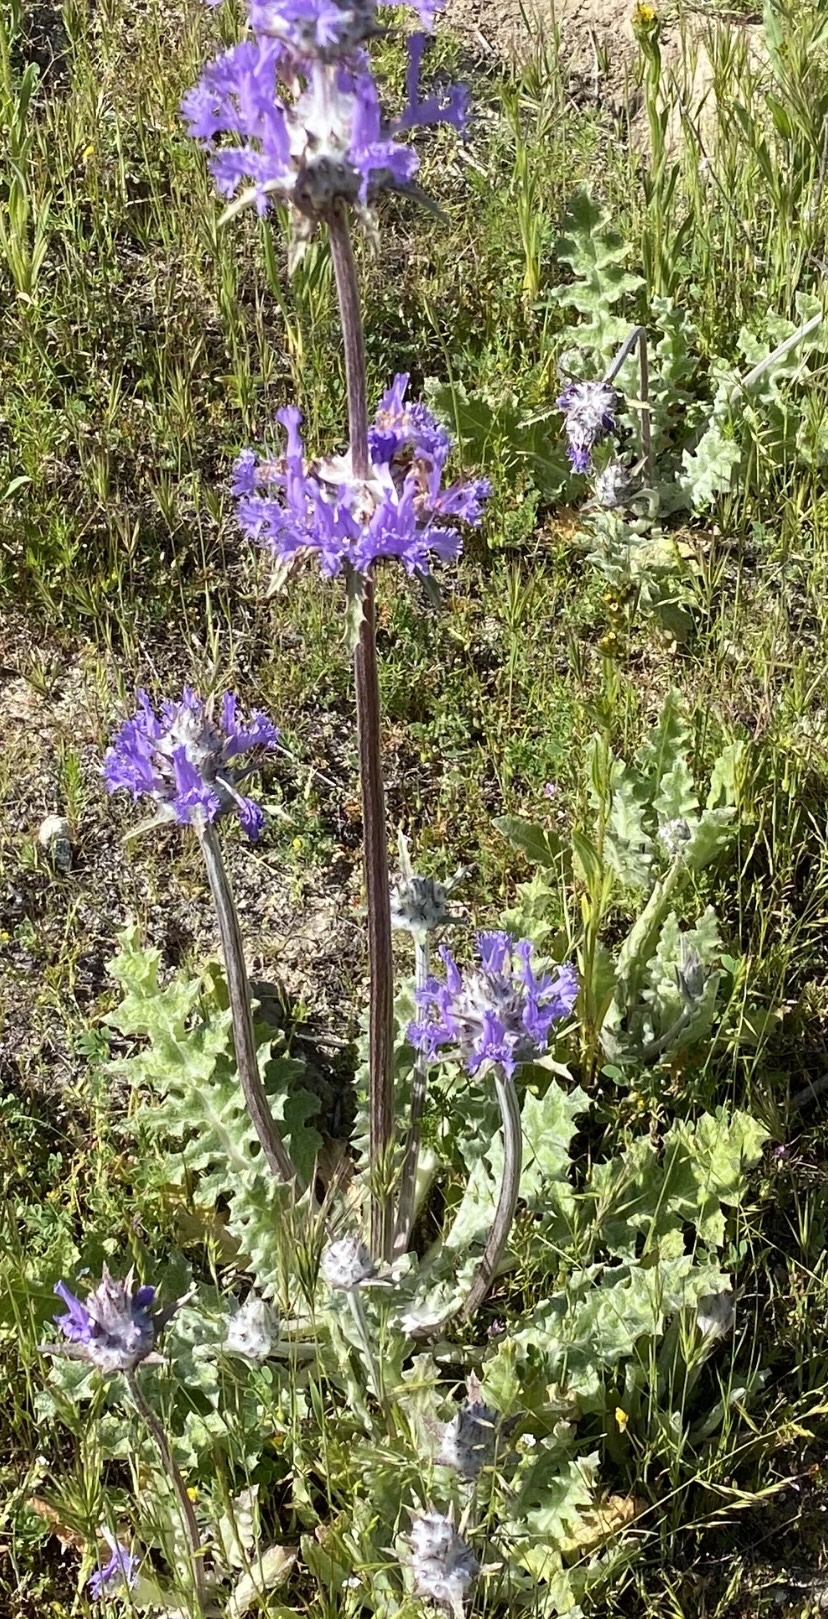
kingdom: Plantae
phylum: Tracheophyta
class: Magnoliopsida
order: Lamiales
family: Lamiaceae
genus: Salvia
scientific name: Salvia carduacea
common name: Thistle sage
